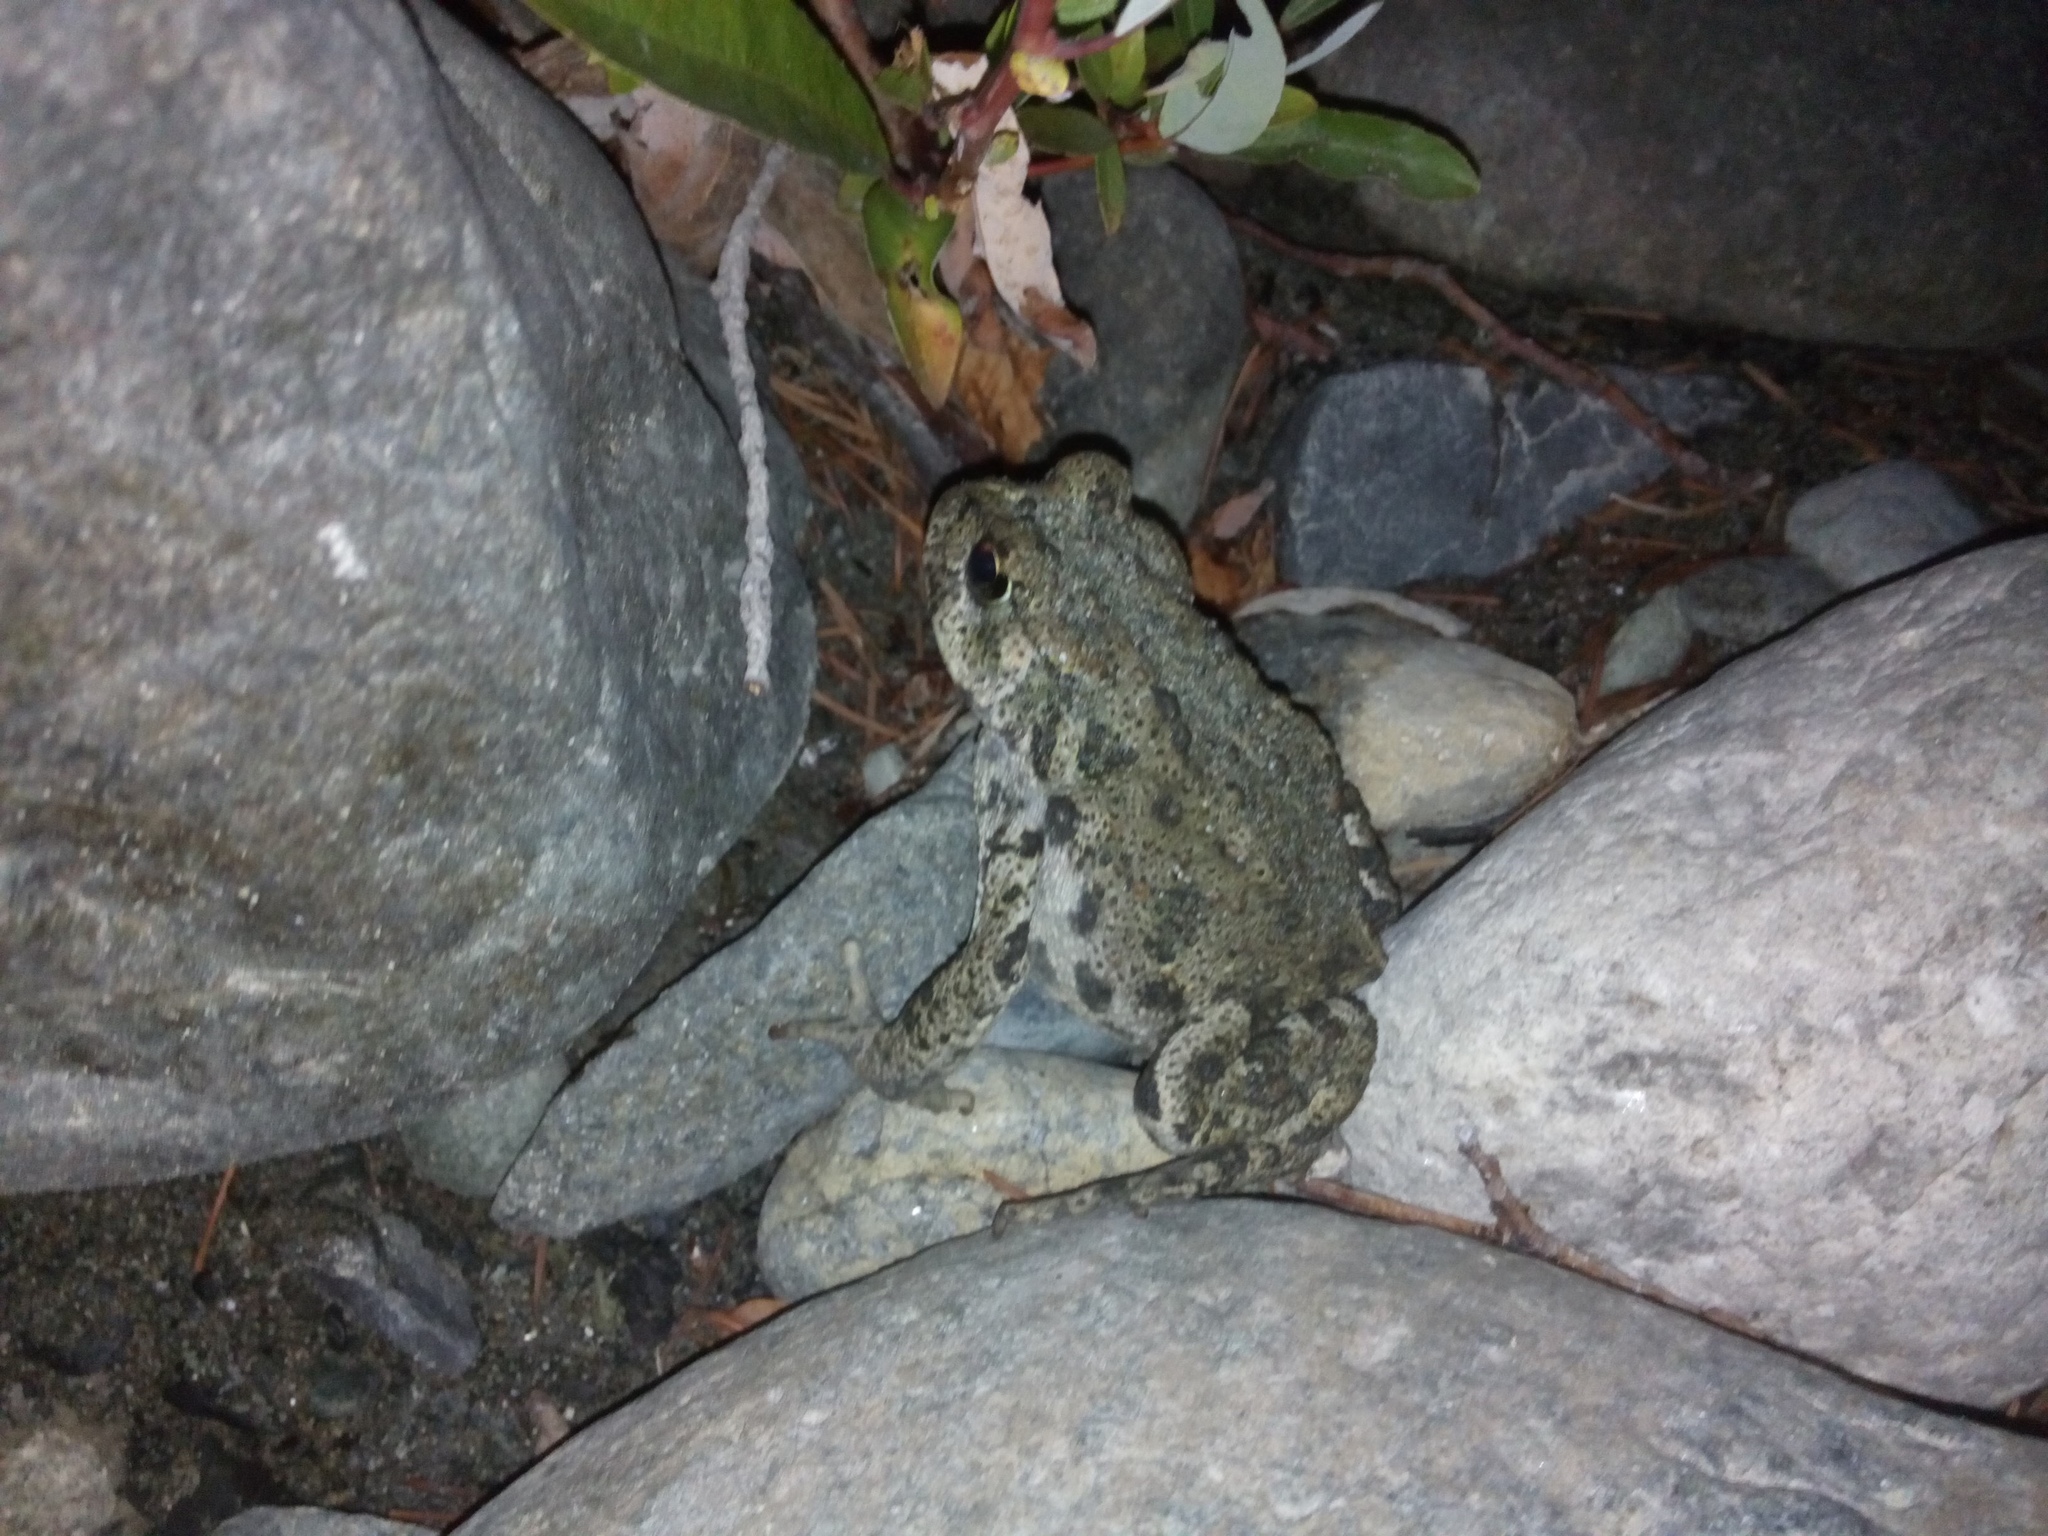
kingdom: Animalia
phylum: Chordata
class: Amphibia
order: Anura
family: Bufonidae
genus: Anaxyrus
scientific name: Anaxyrus boreas
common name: Western toad
